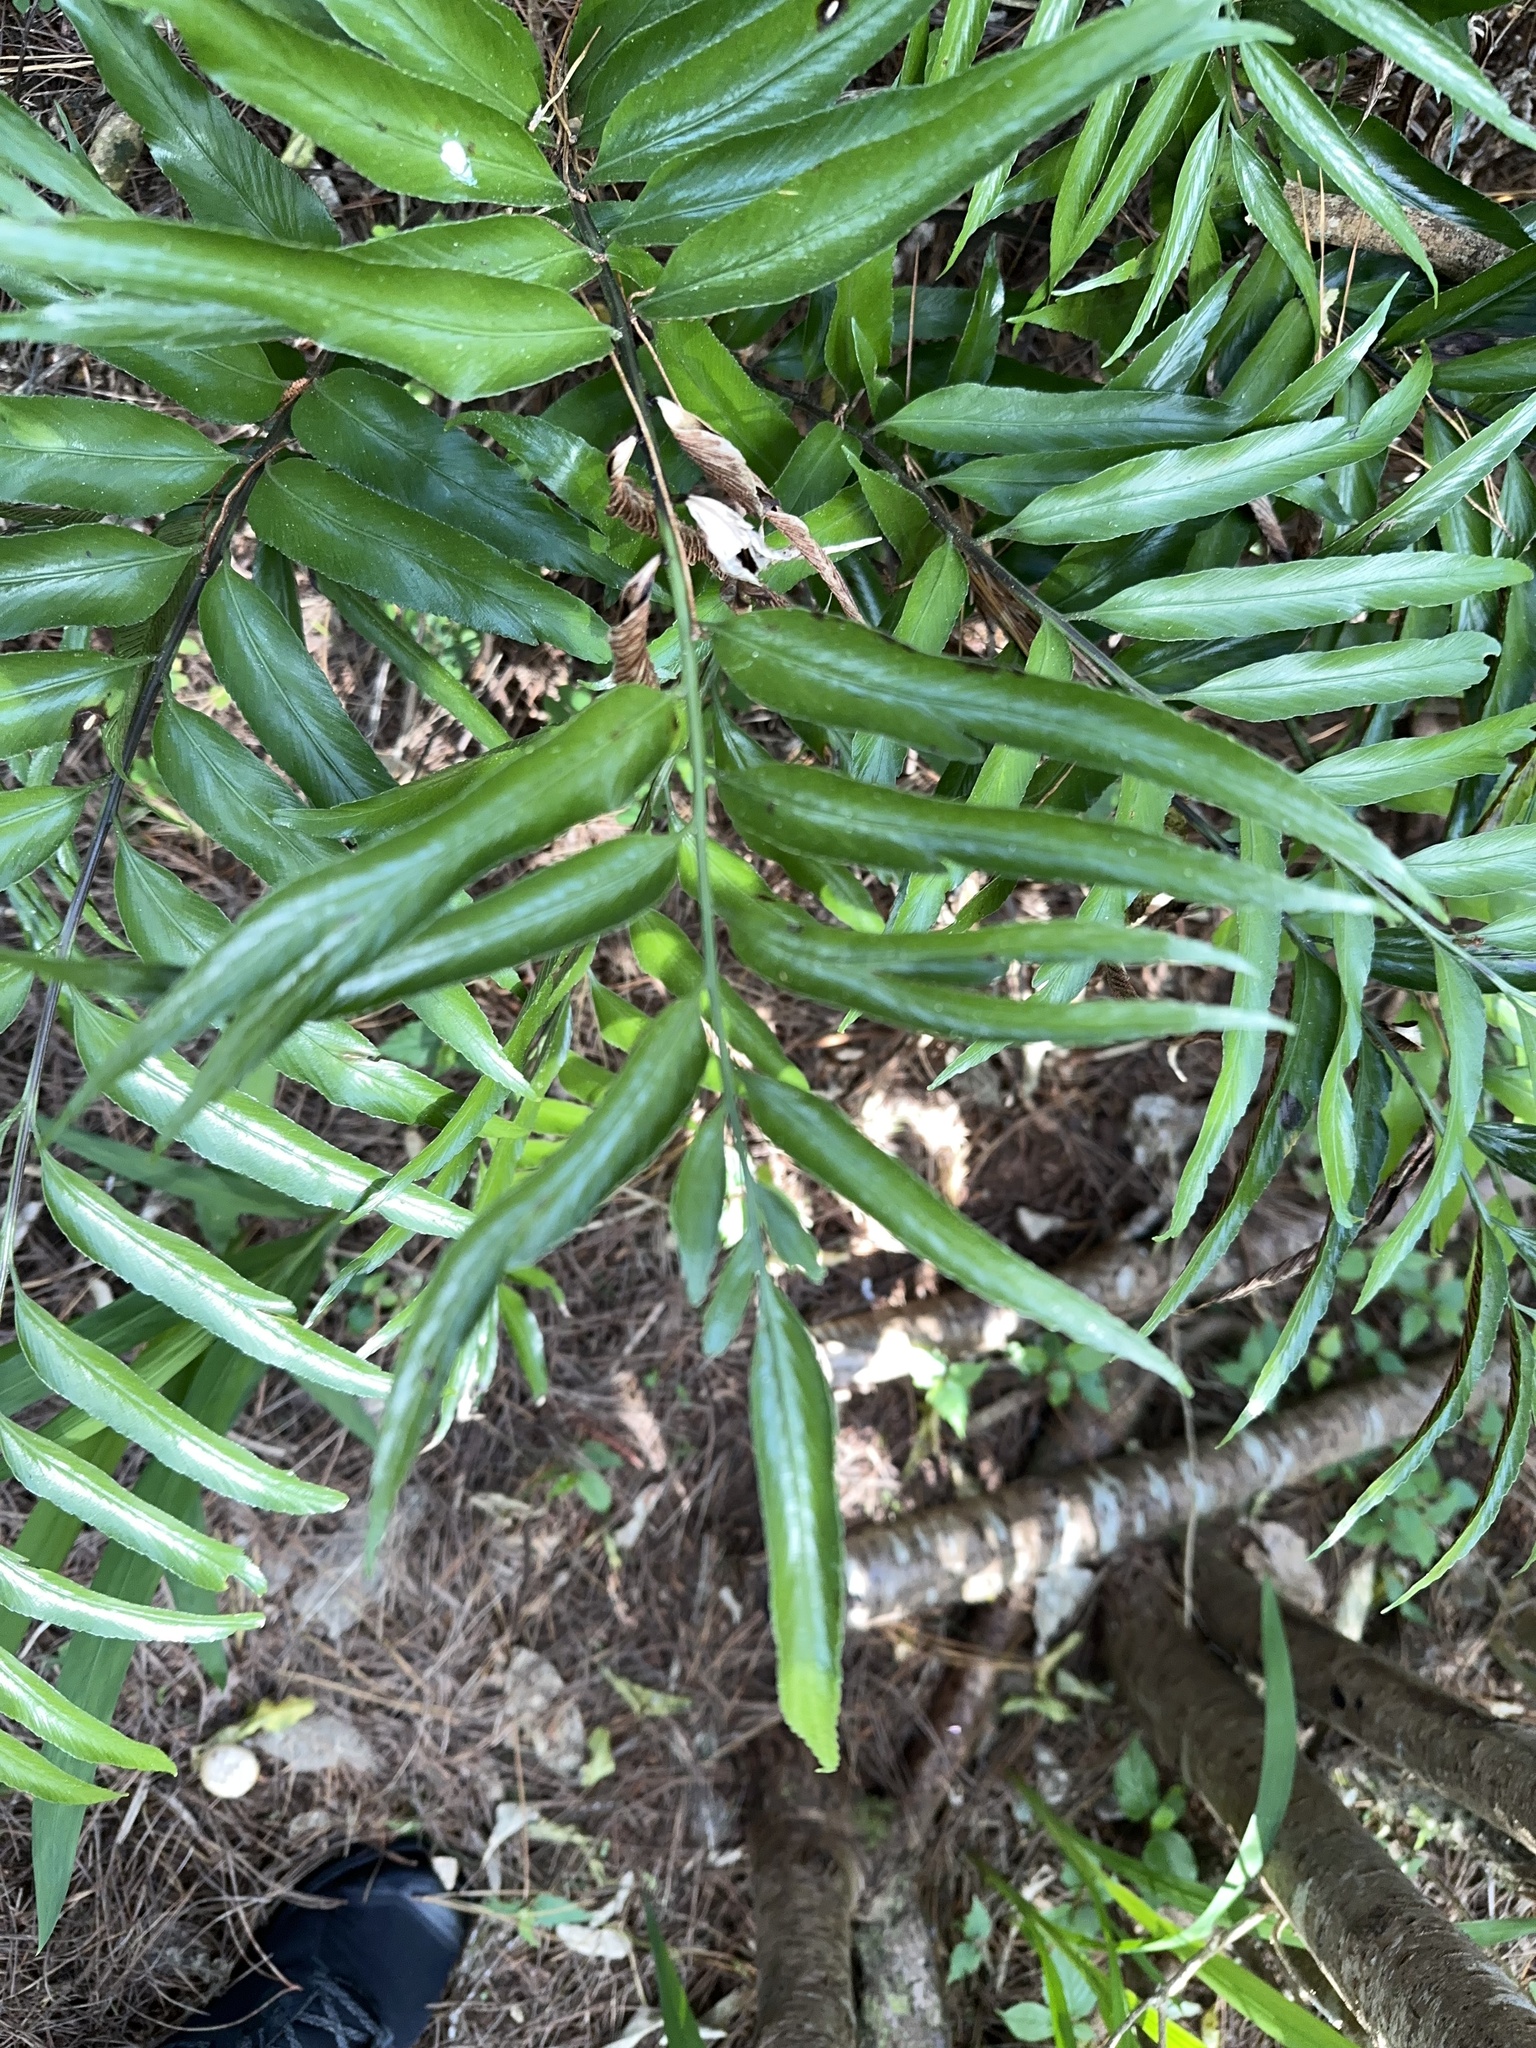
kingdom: Plantae
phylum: Tracheophyta
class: Polypodiopsida
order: Polypodiales
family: Aspleniaceae
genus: Asplenium
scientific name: Asplenium oblongifolium
